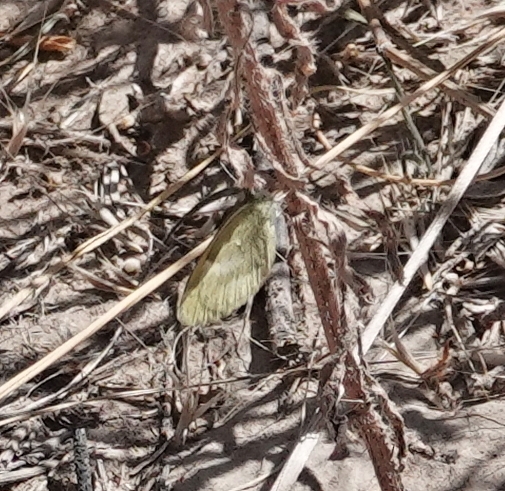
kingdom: Animalia
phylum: Arthropoda
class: Insecta
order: Lepidoptera
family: Pieridae
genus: Nathalis
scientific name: Nathalis iole
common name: Dainty sulphur
